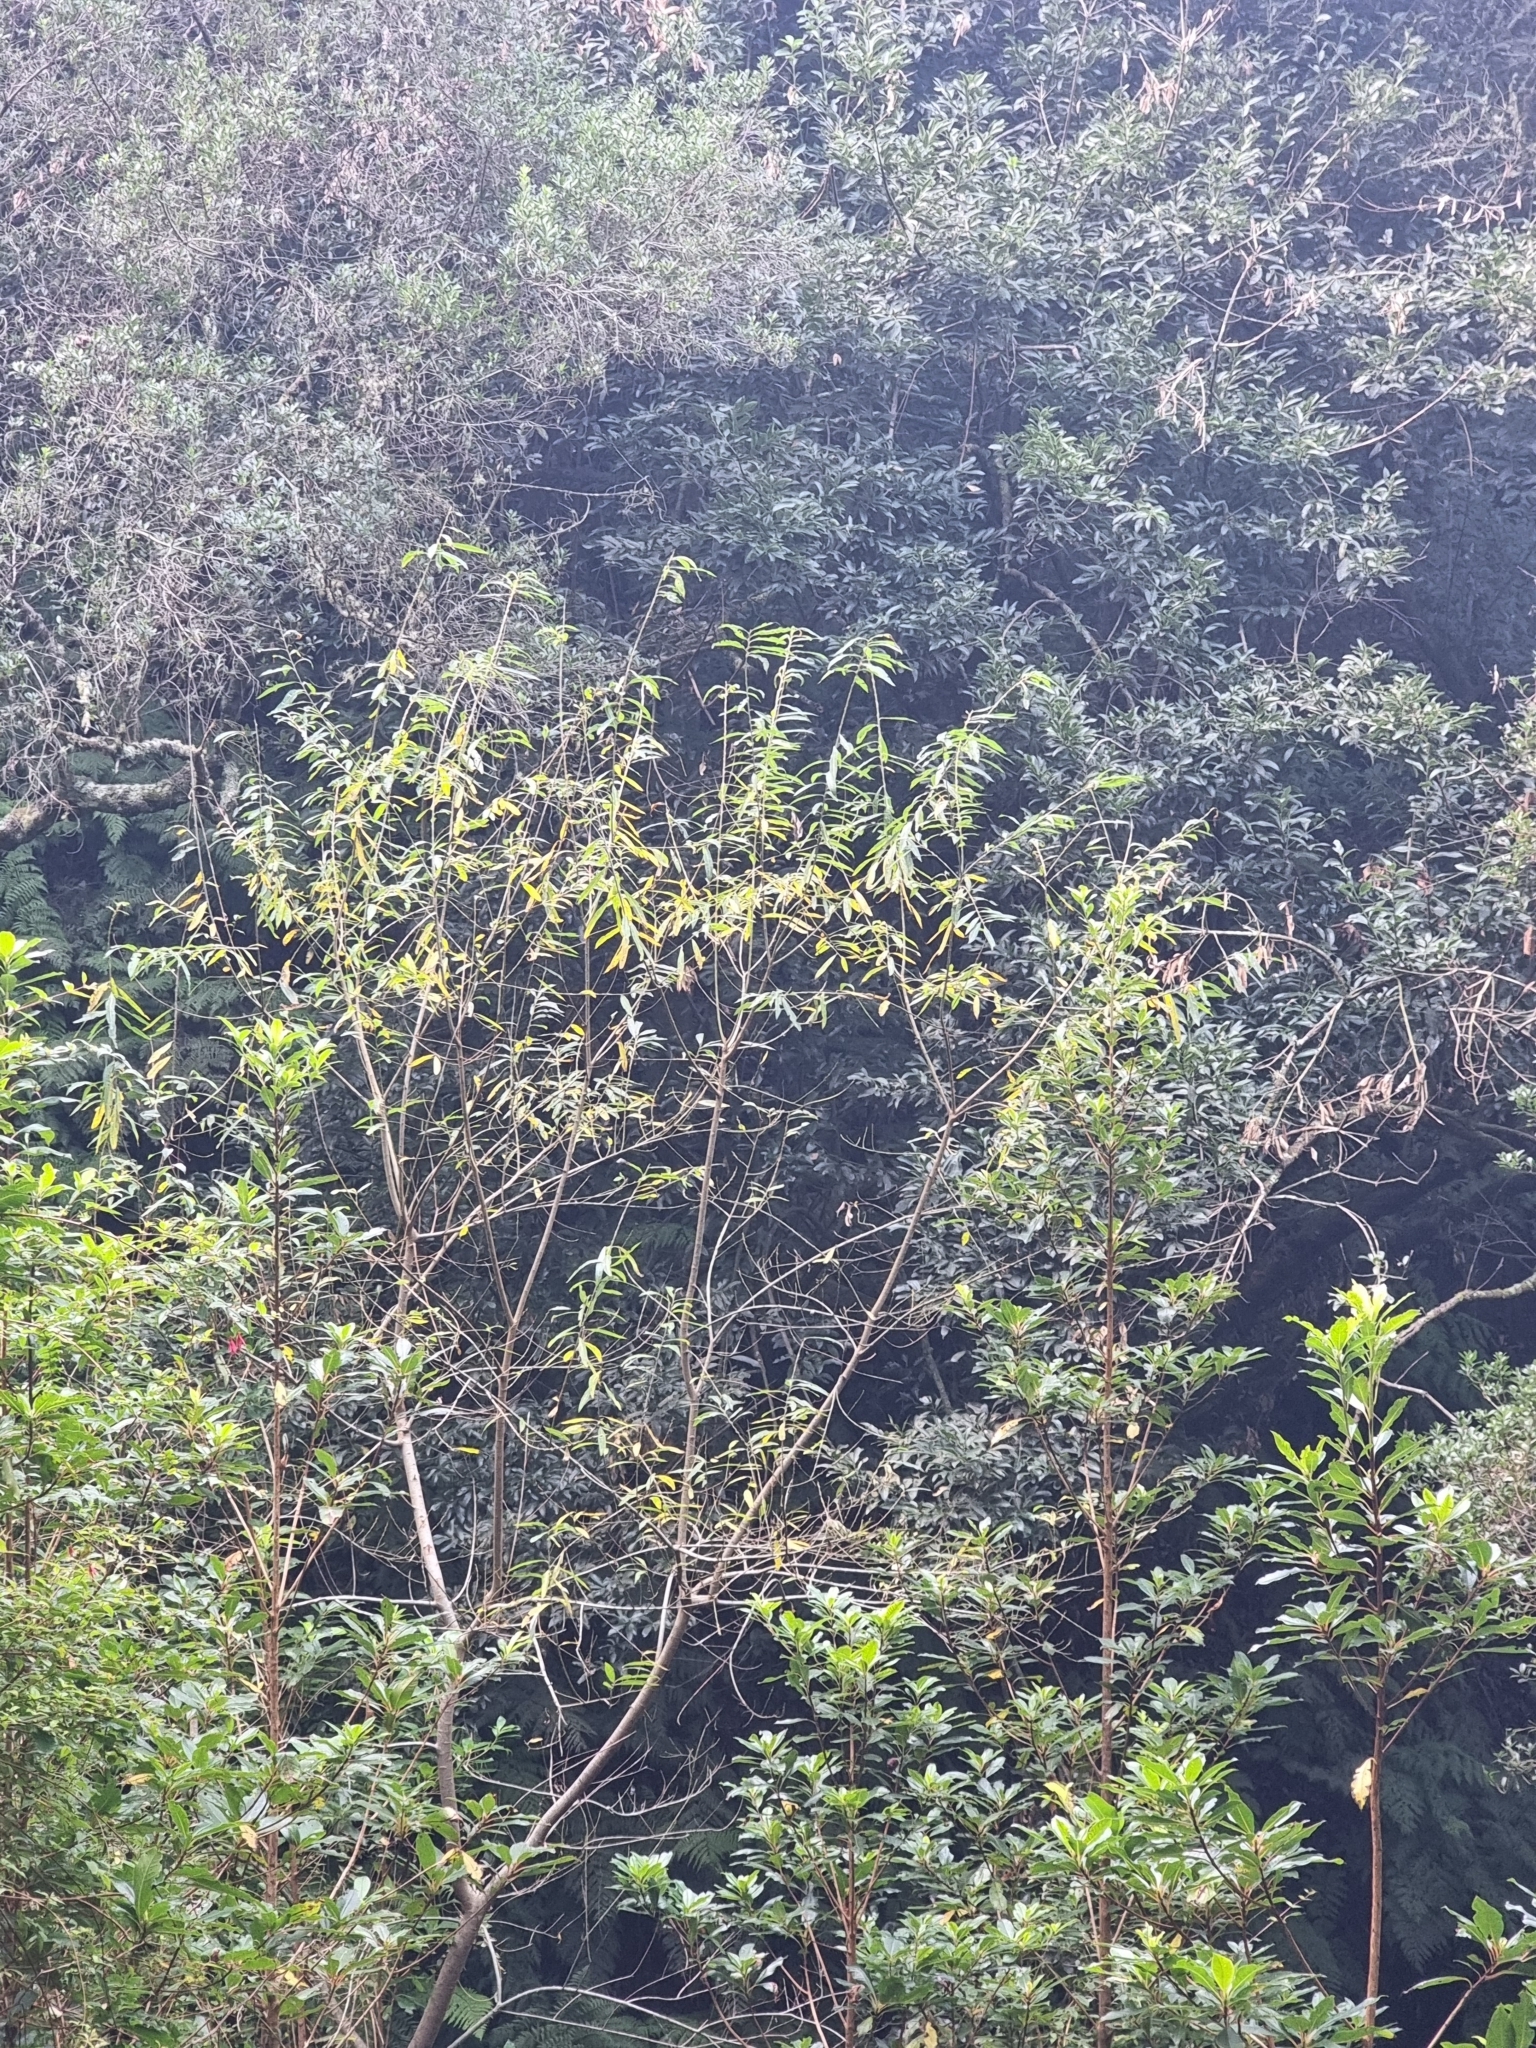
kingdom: Plantae
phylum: Tracheophyta
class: Magnoliopsida
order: Malpighiales
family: Salicaceae
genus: Salix
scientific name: Salix canariensis
